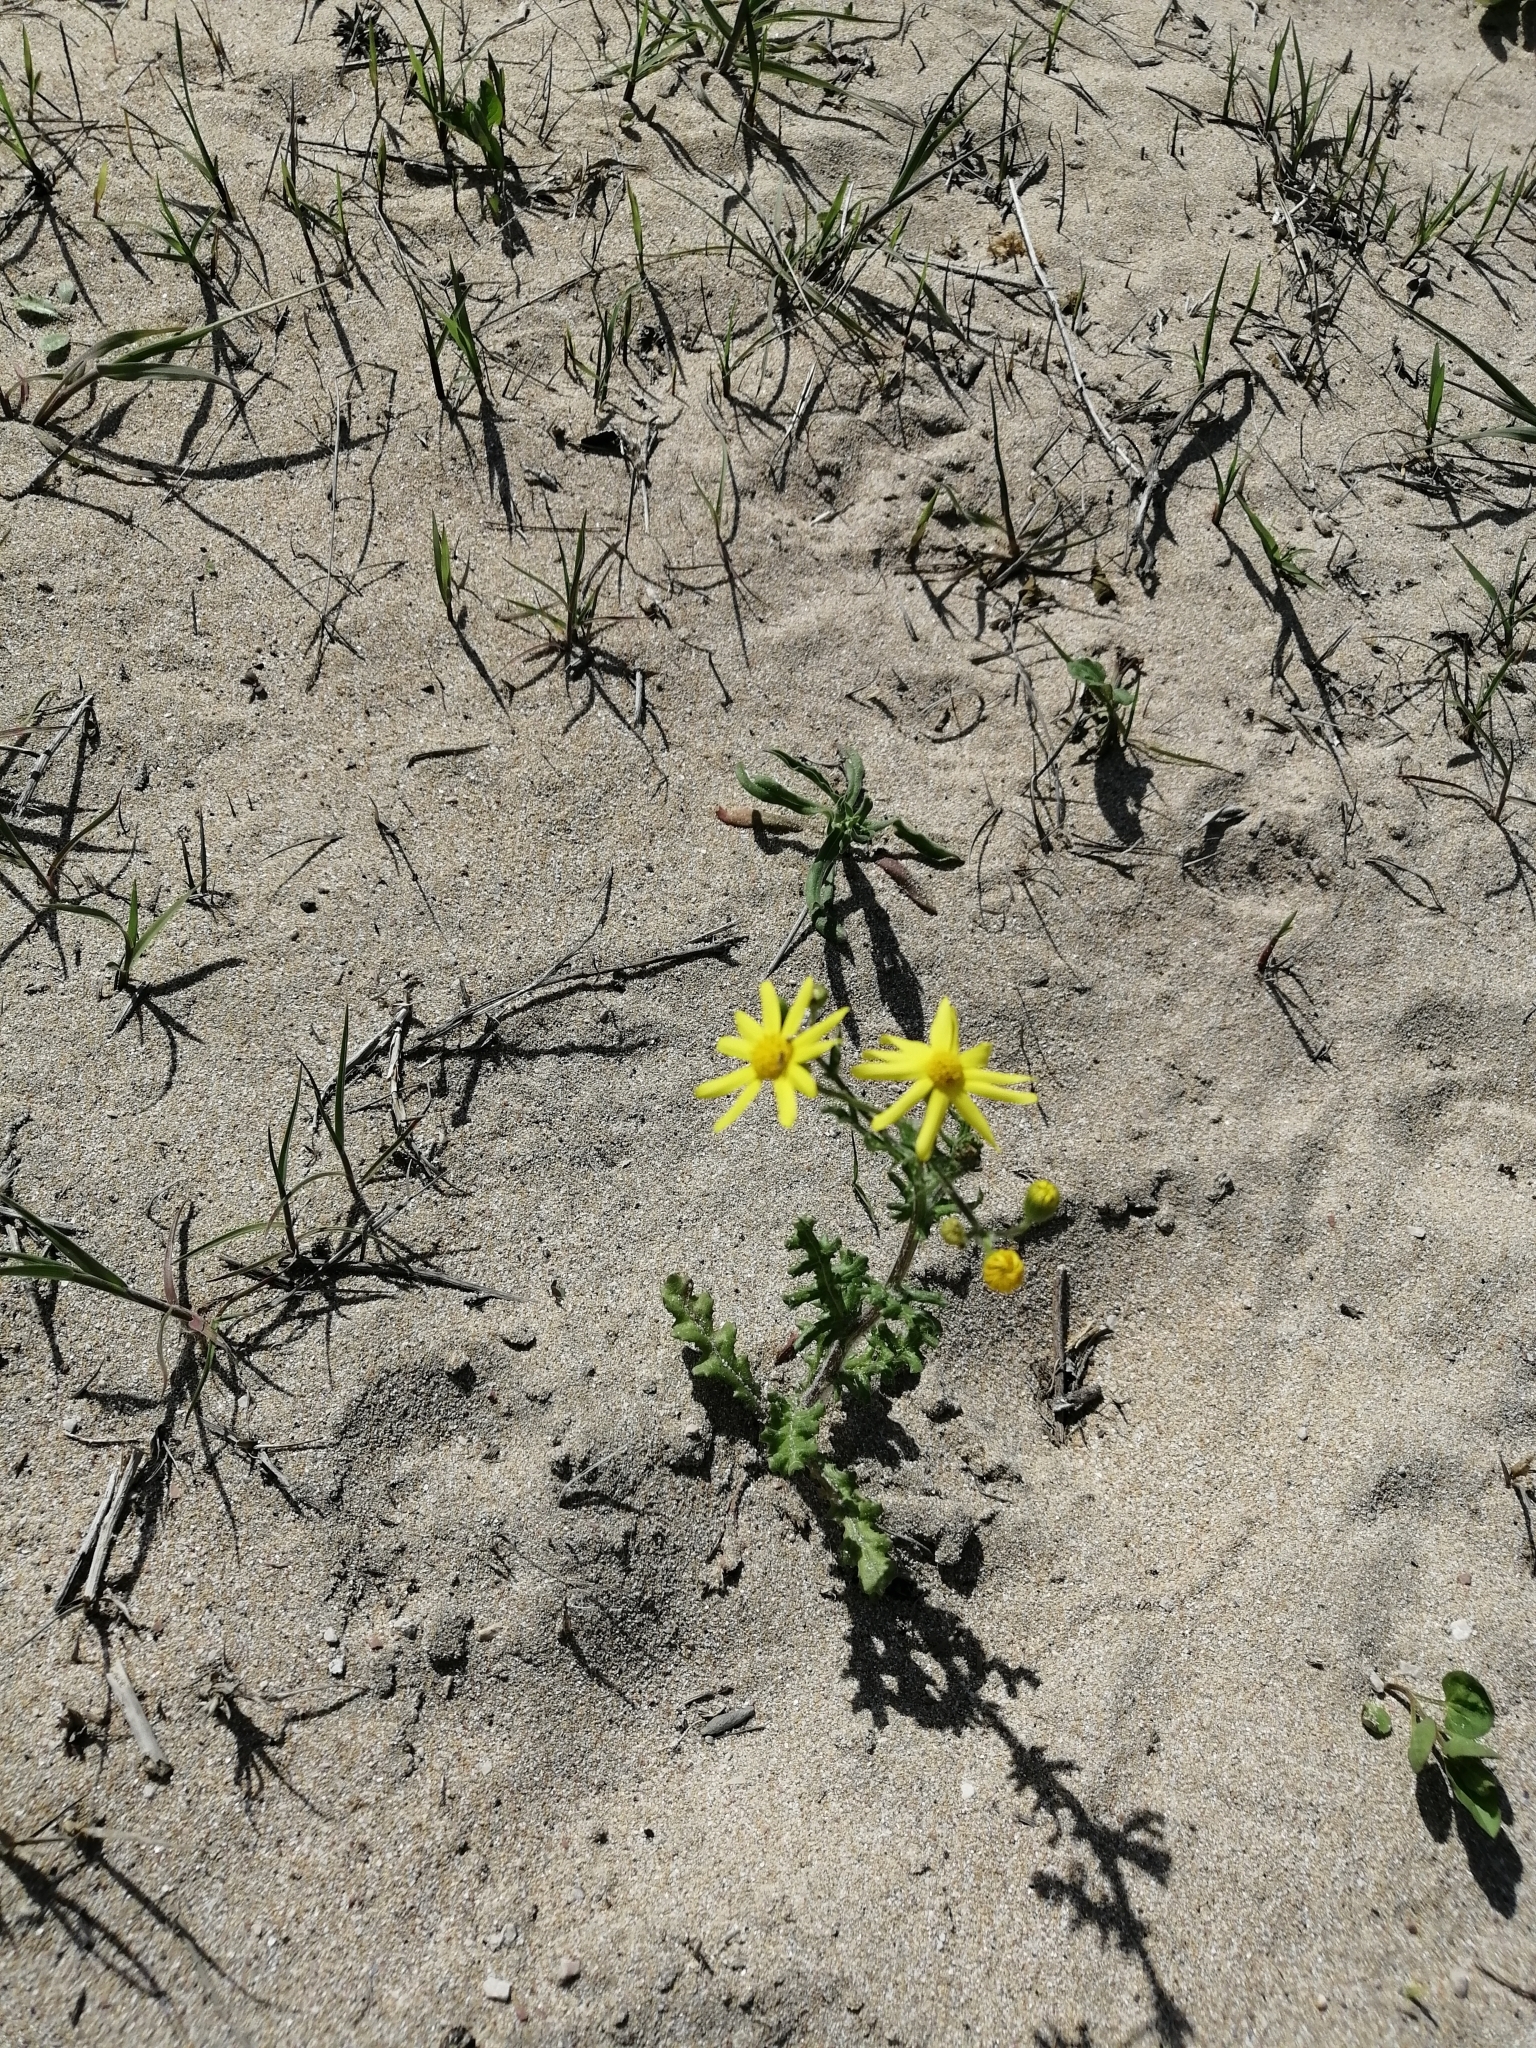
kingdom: Plantae
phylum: Tracheophyta
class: Magnoliopsida
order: Asterales
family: Asteraceae
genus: Senecio
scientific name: Senecio vernalis
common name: Eastern groundsel
